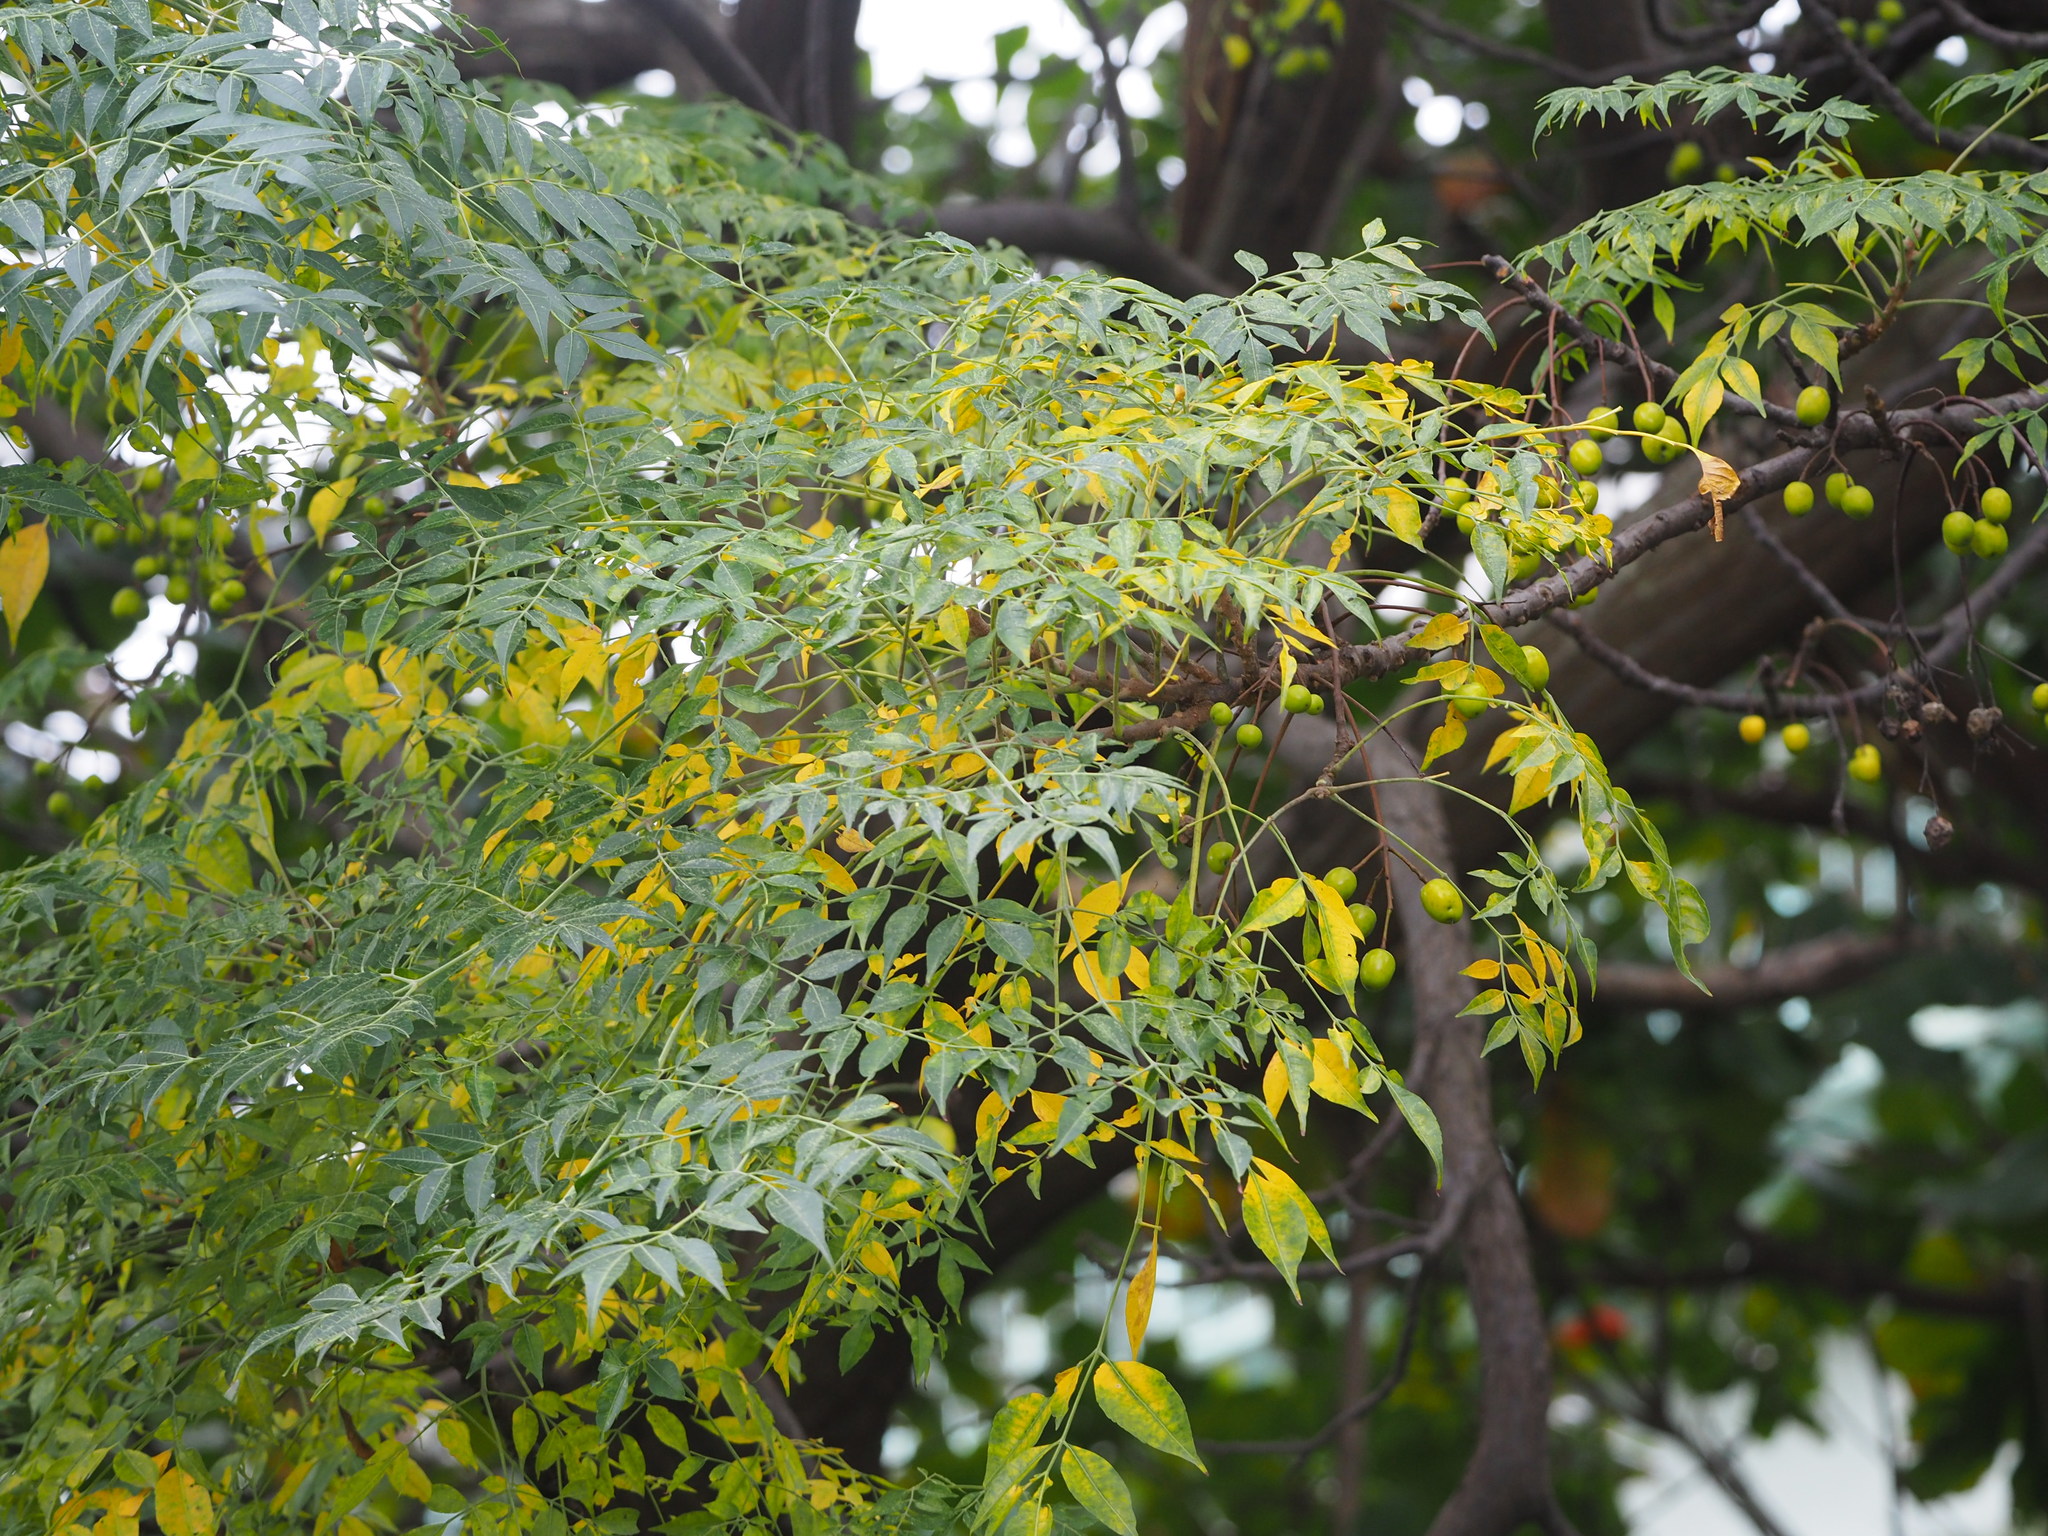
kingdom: Plantae
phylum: Tracheophyta
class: Magnoliopsida
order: Sapindales
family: Meliaceae
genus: Melia
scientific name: Melia azedarach
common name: Chinaberrytree
